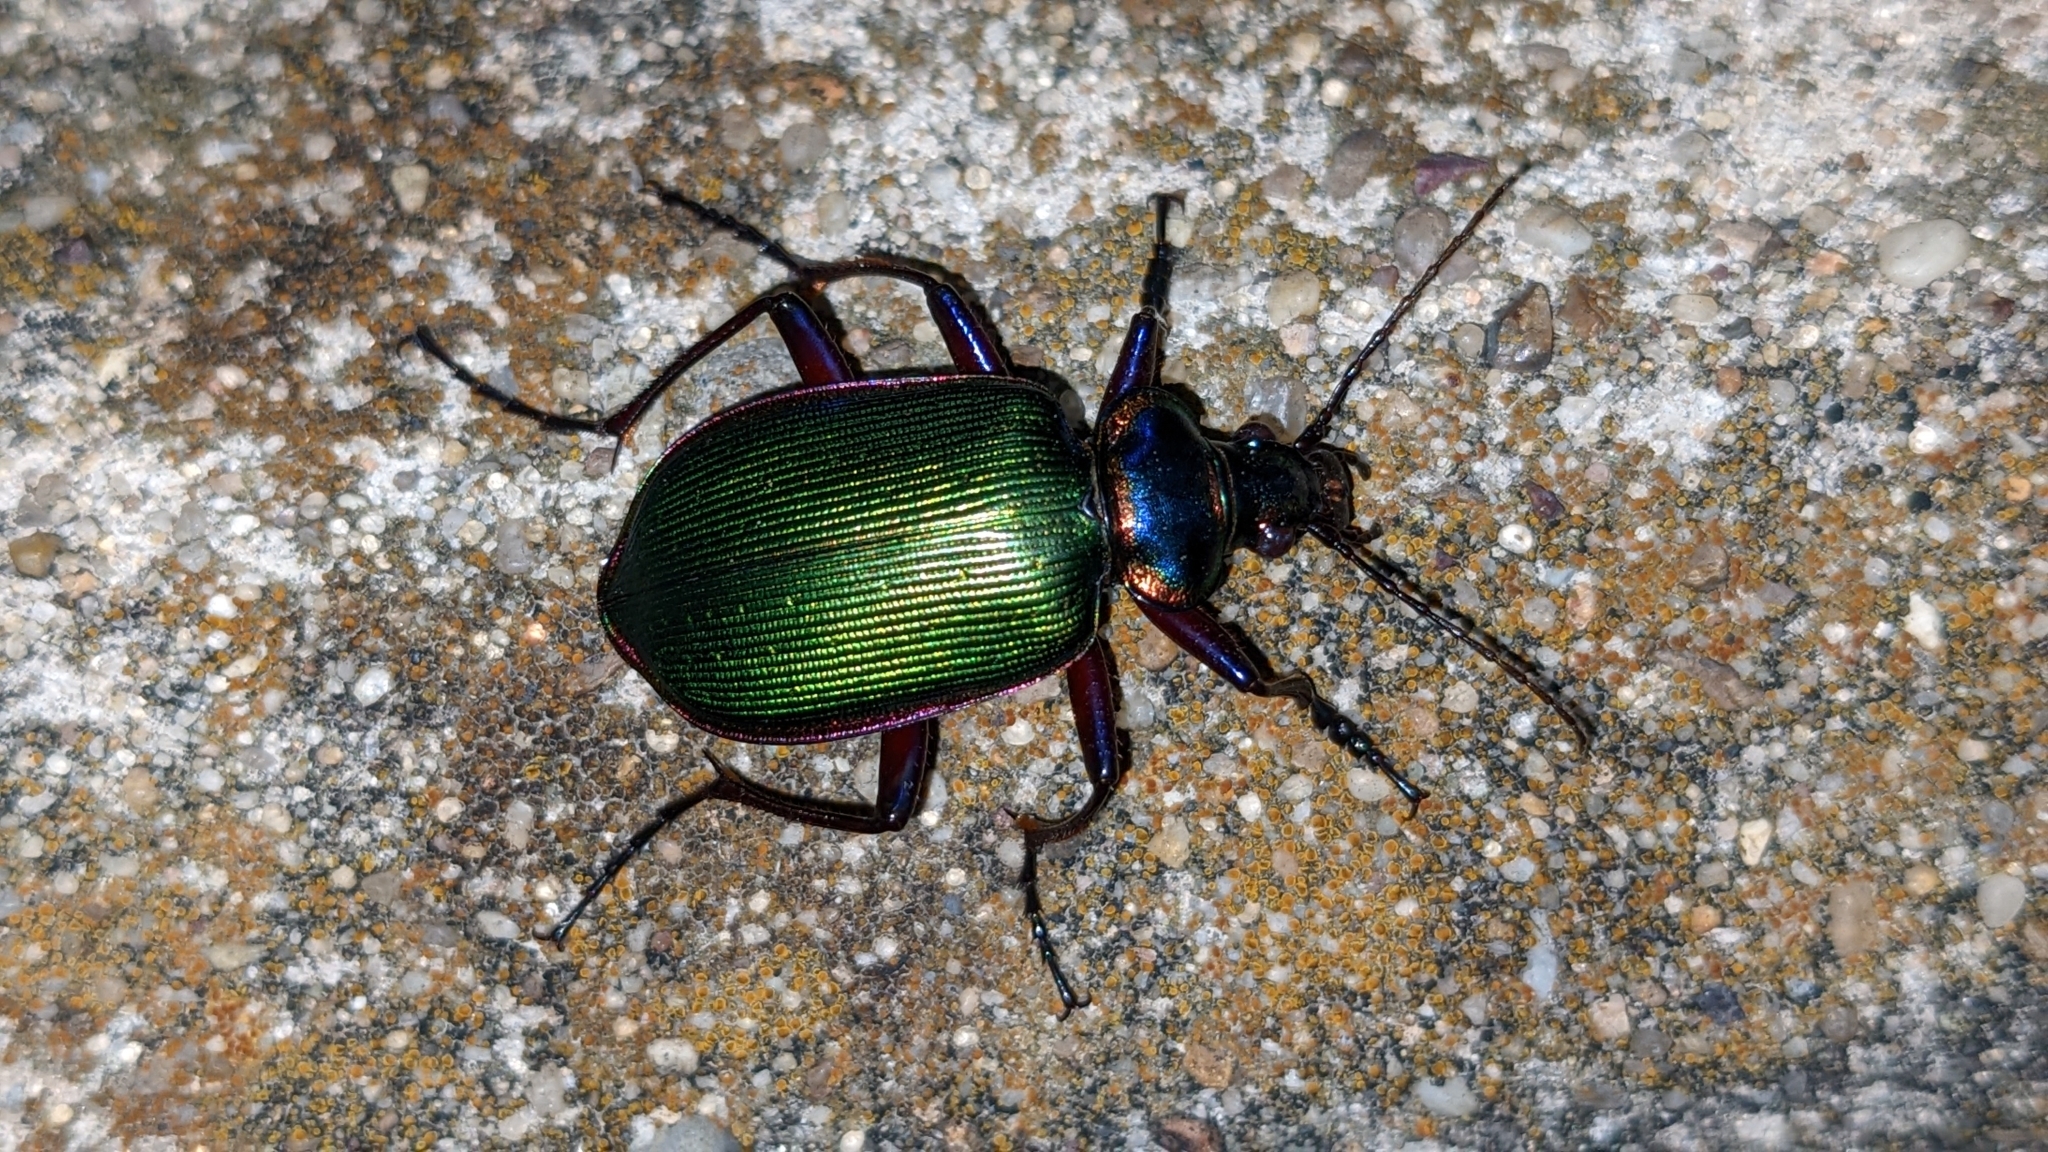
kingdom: Animalia
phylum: Arthropoda
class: Insecta
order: Coleoptera
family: Carabidae
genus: Calosoma
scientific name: Calosoma scrutator
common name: Fiery searcher beetle
